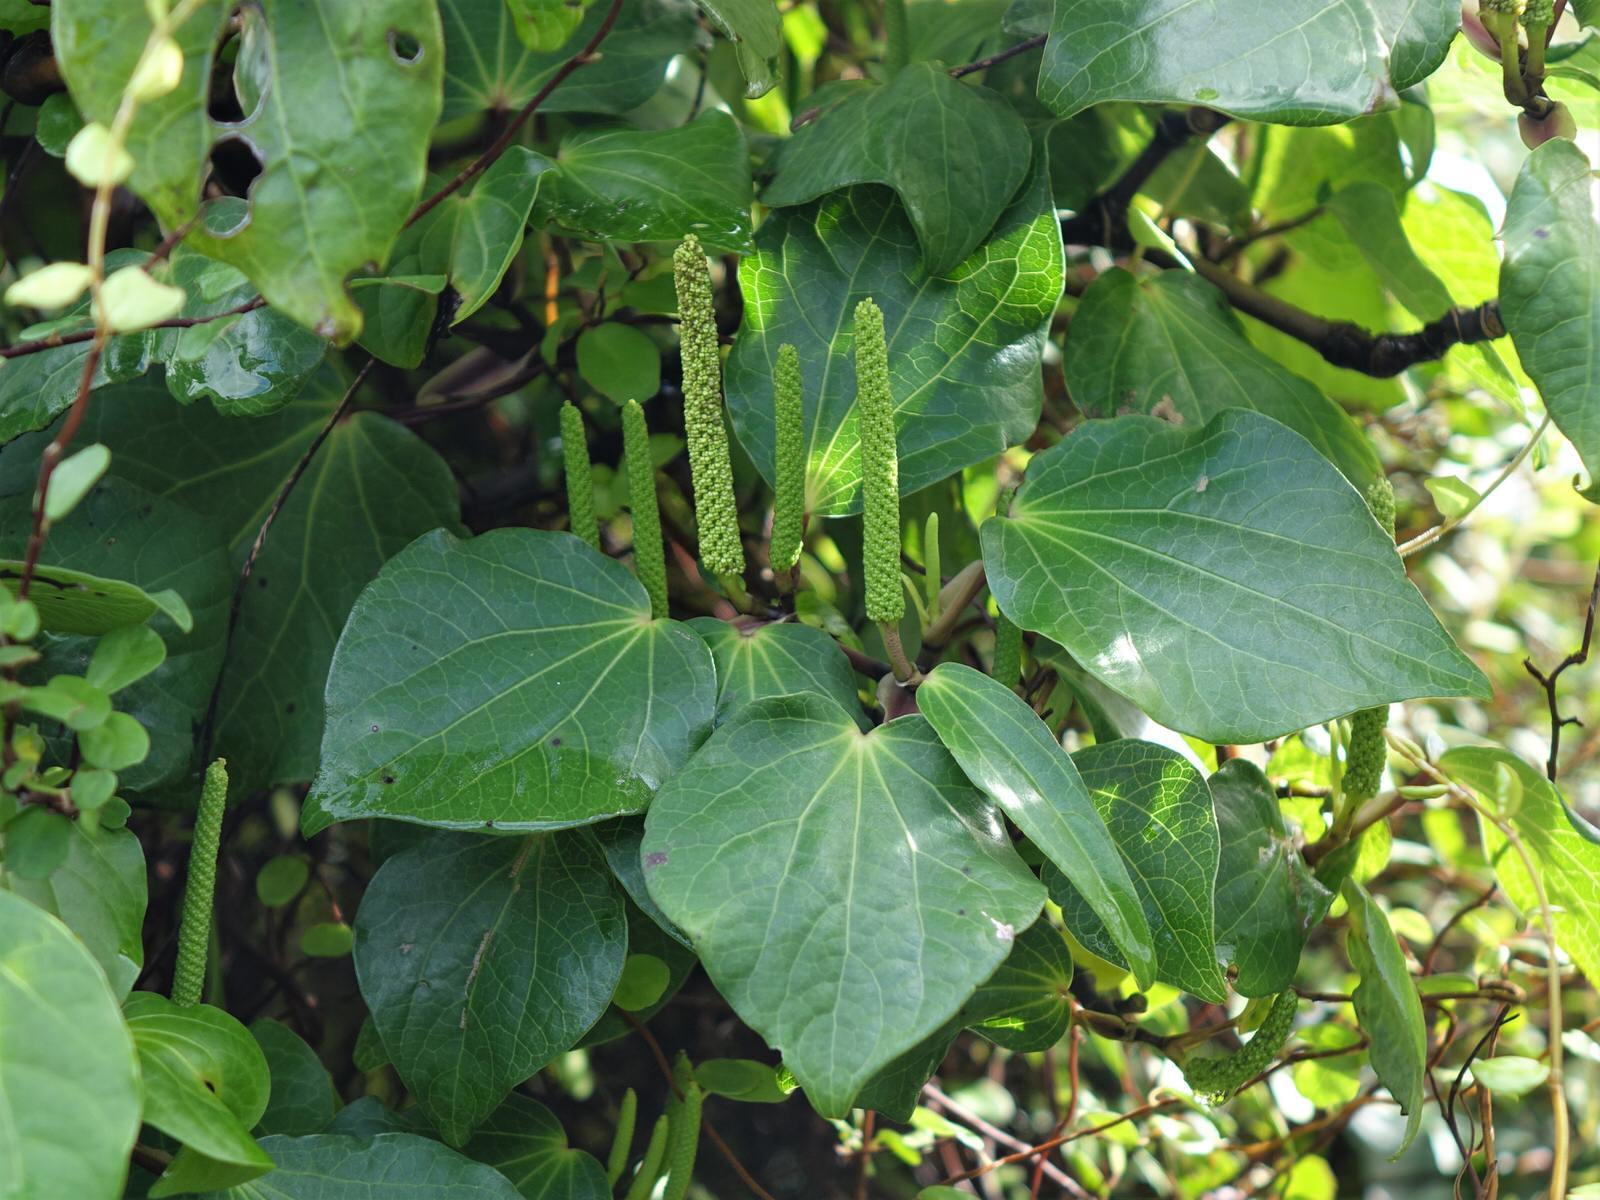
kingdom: Plantae
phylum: Tracheophyta
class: Magnoliopsida
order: Piperales
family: Piperaceae
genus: Macropiper
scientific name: Macropiper excelsum
